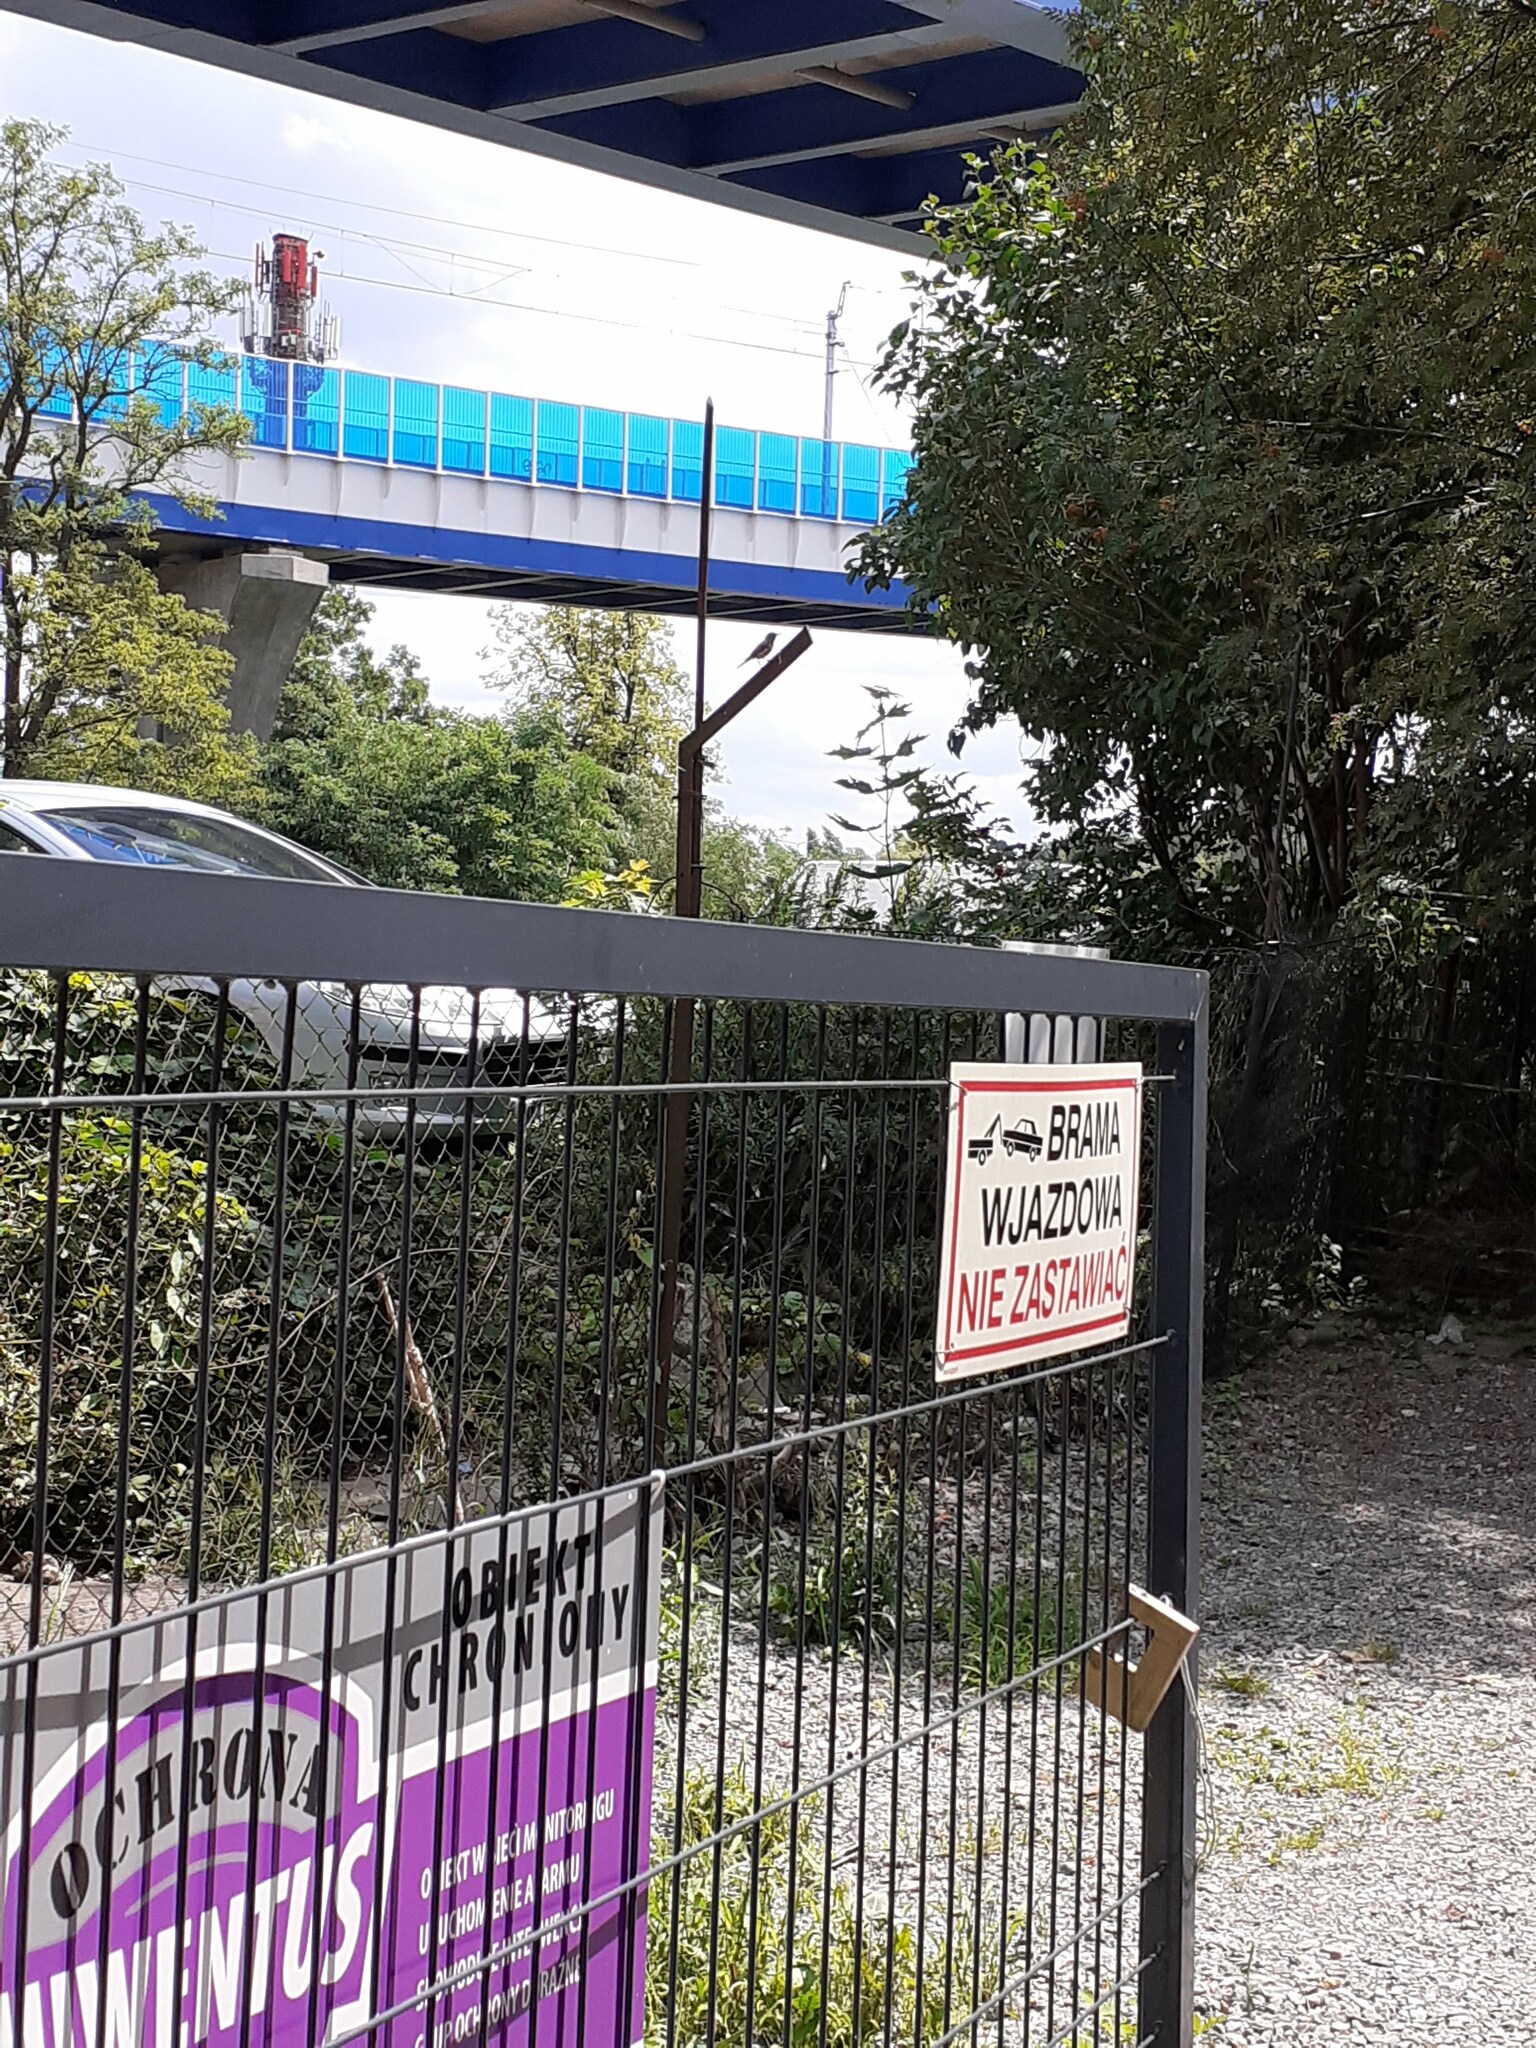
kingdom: Animalia
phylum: Chordata
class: Aves
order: Passeriformes
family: Muscicapidae
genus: Phoenicurus
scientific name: Phoenicurus phoenicurus
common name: Common redstart
